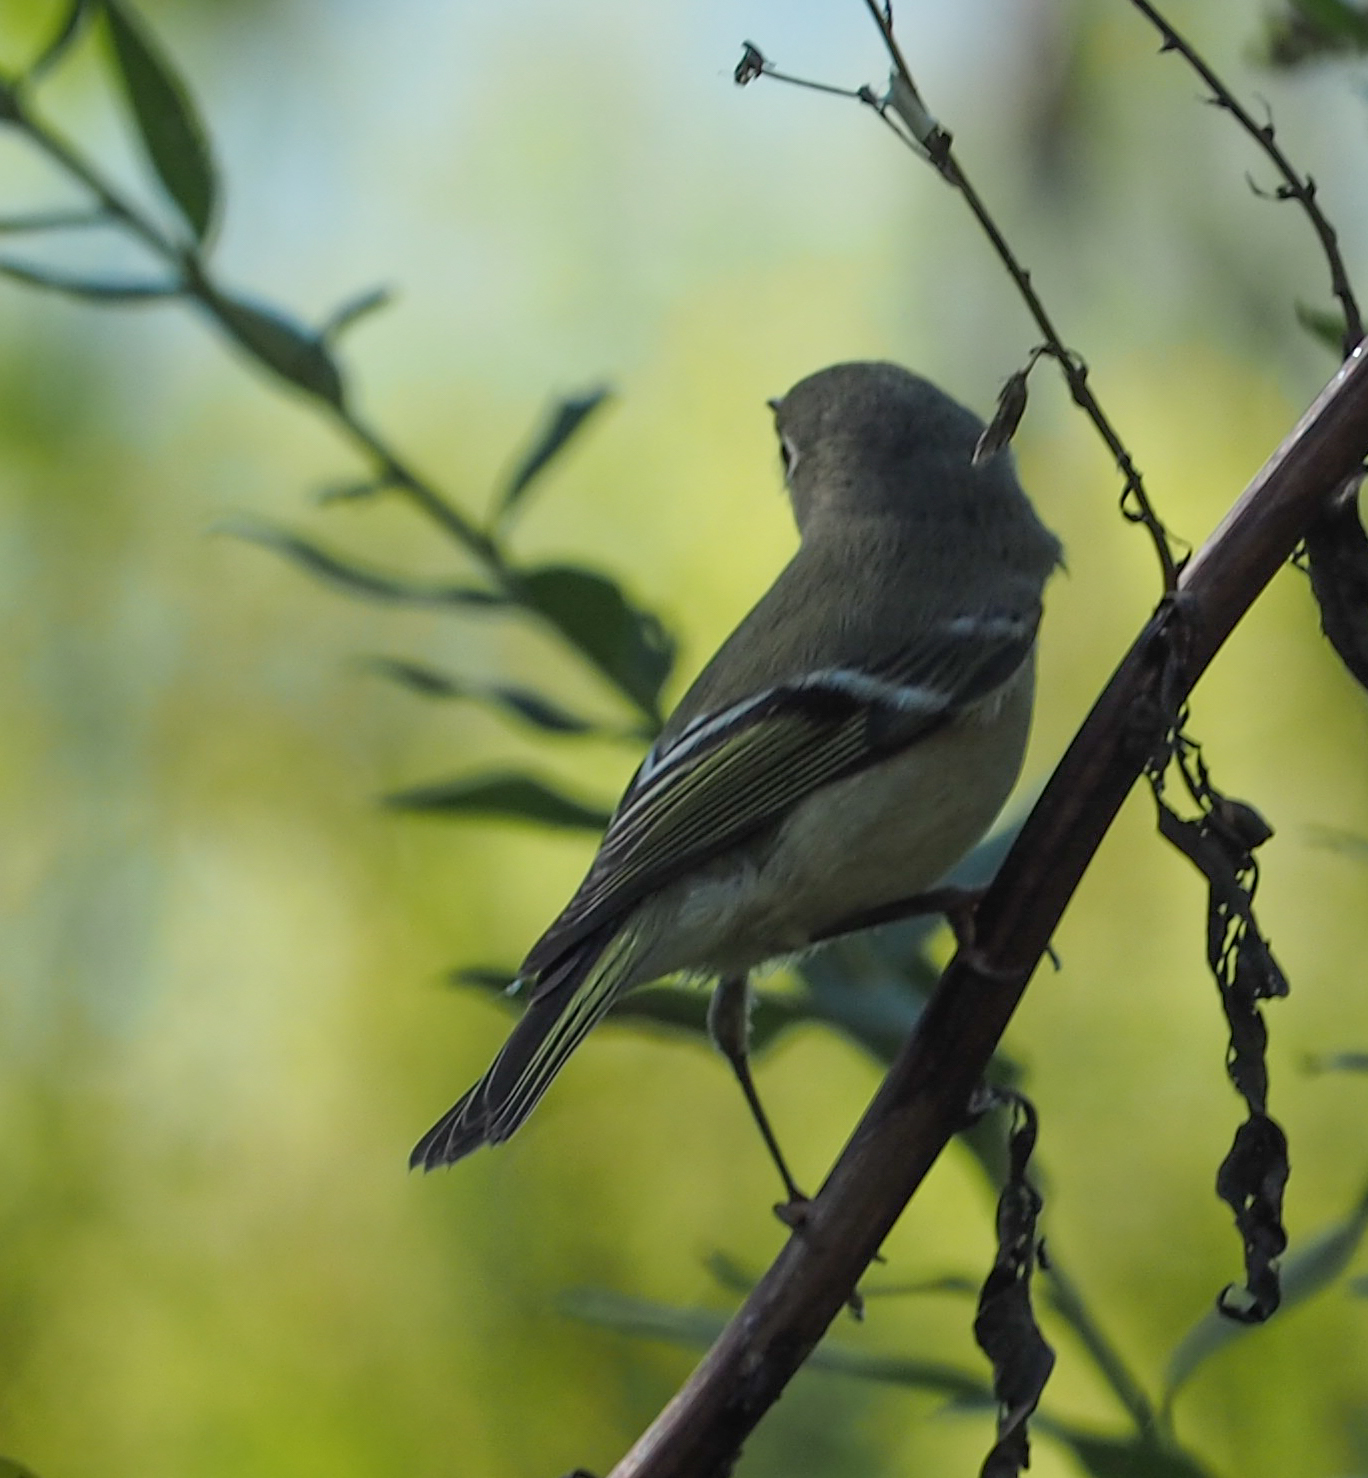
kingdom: Animalia
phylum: Chordata
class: Aves
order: Passeriformes
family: Regulidae
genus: Regulus
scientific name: Regulus calendula
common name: Ruby-crowned kinglet
